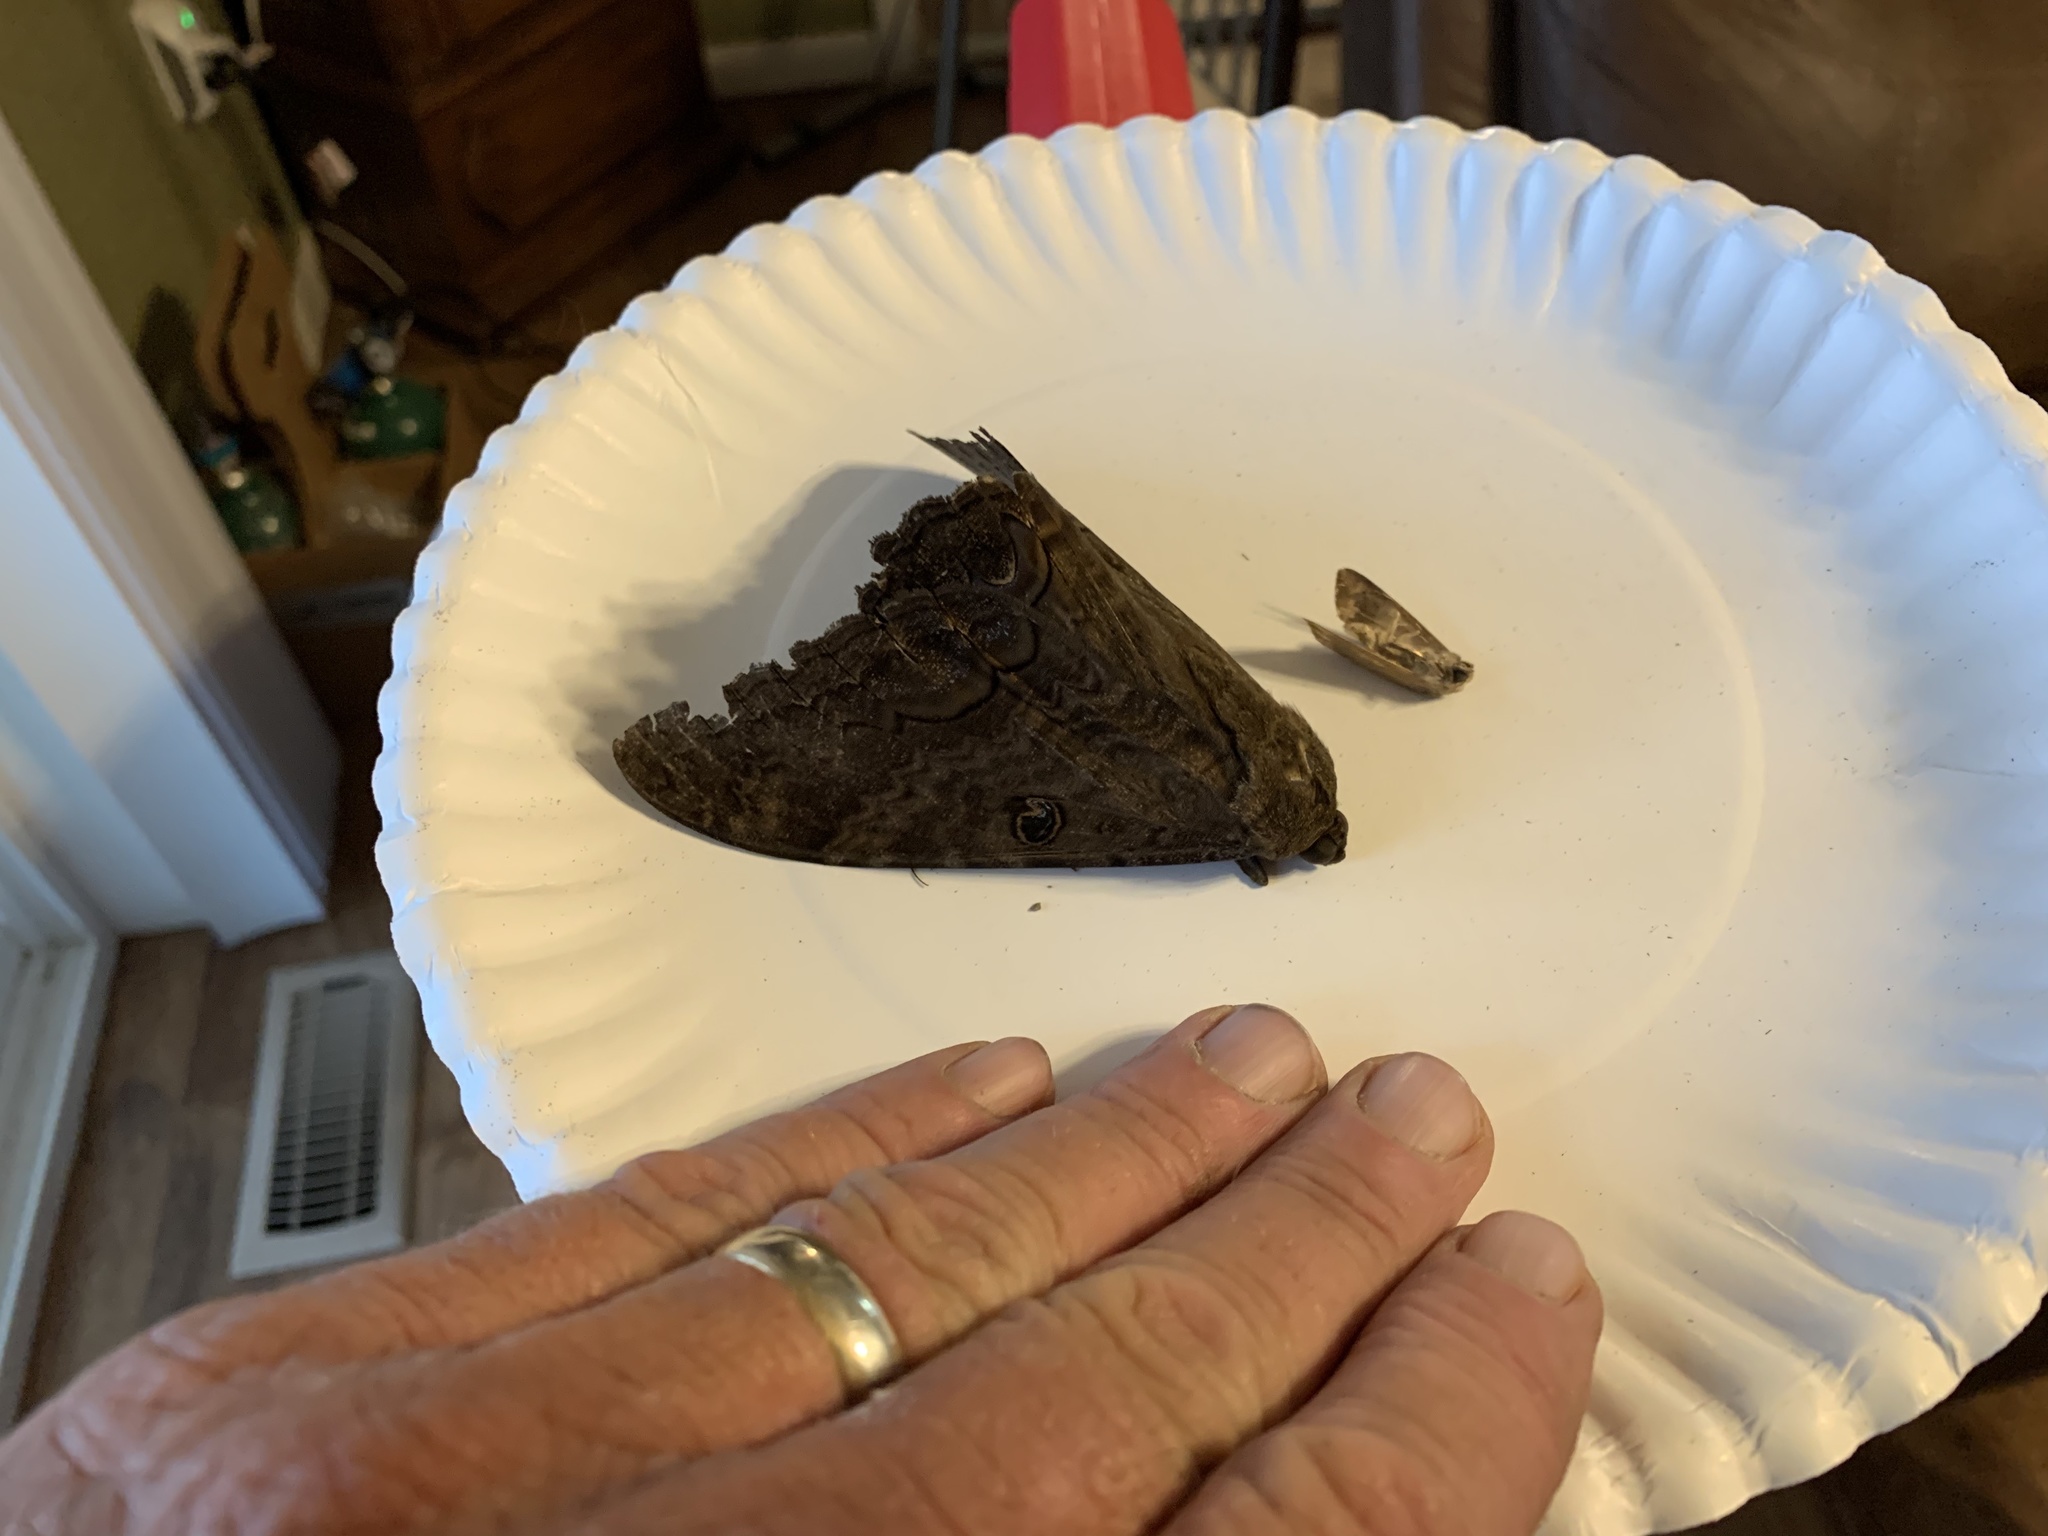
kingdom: Animalia
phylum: Arthropoda
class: Insecta
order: Lepidoptera
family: Erebidae
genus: Ascalapha
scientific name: Ascalapha odorata
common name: Black witch
